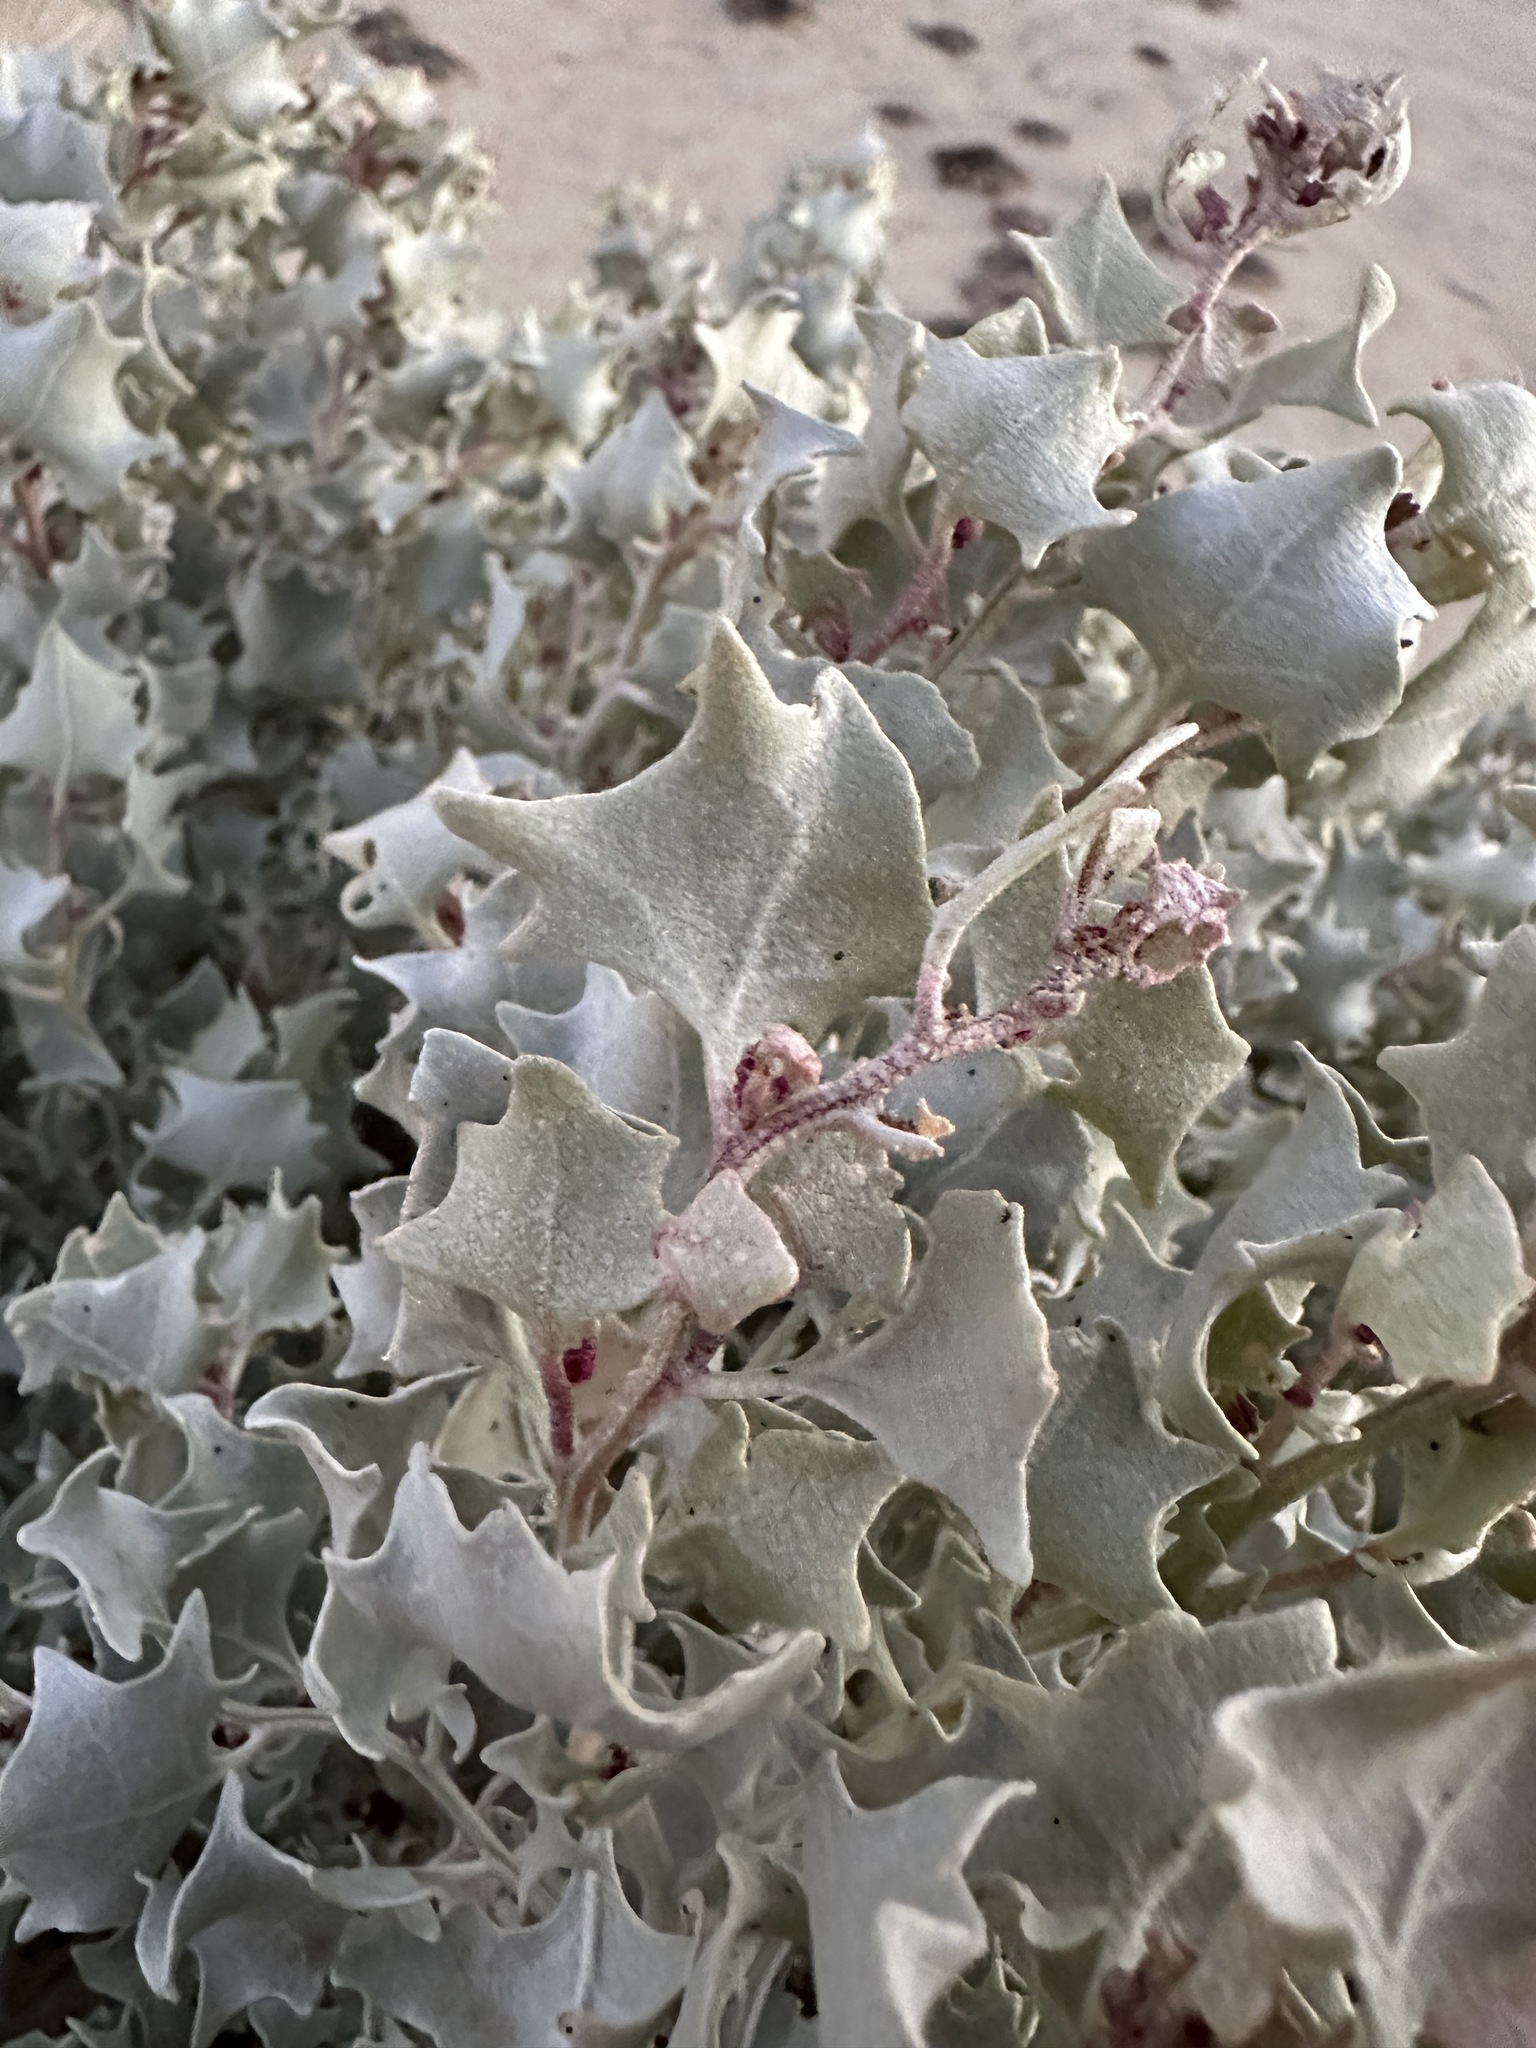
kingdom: Plantae
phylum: Tracheophyta
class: Magnoliopsida
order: Caryophyllales
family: Amaranthaceae
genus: Atriplex
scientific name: Atriplex hymenelytra
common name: Desert-holly
